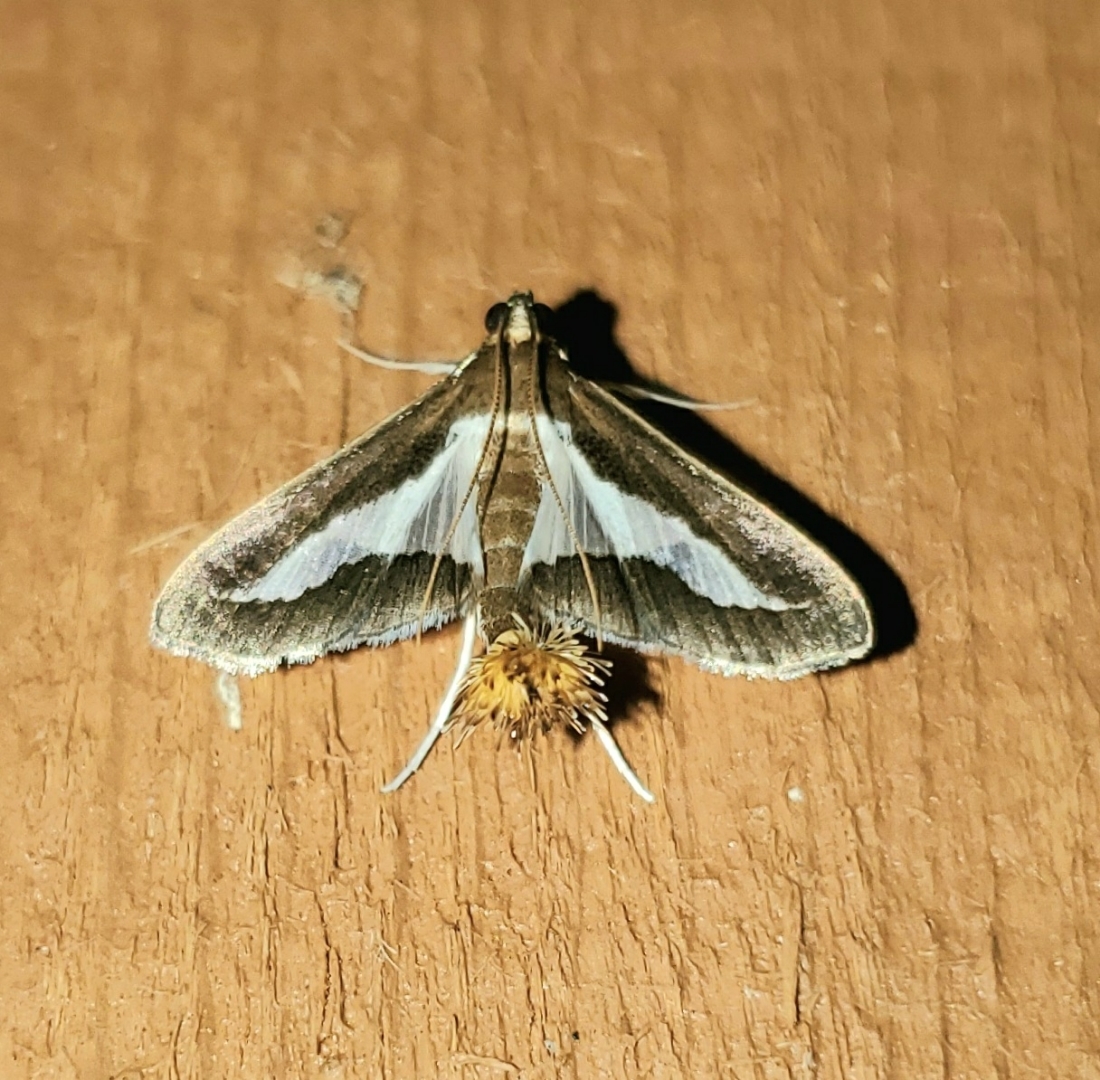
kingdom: Animalia
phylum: Arthropoda
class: Insecta
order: Lepidoptera
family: Crambidae
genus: Diaphania
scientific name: Diaphania modialis
